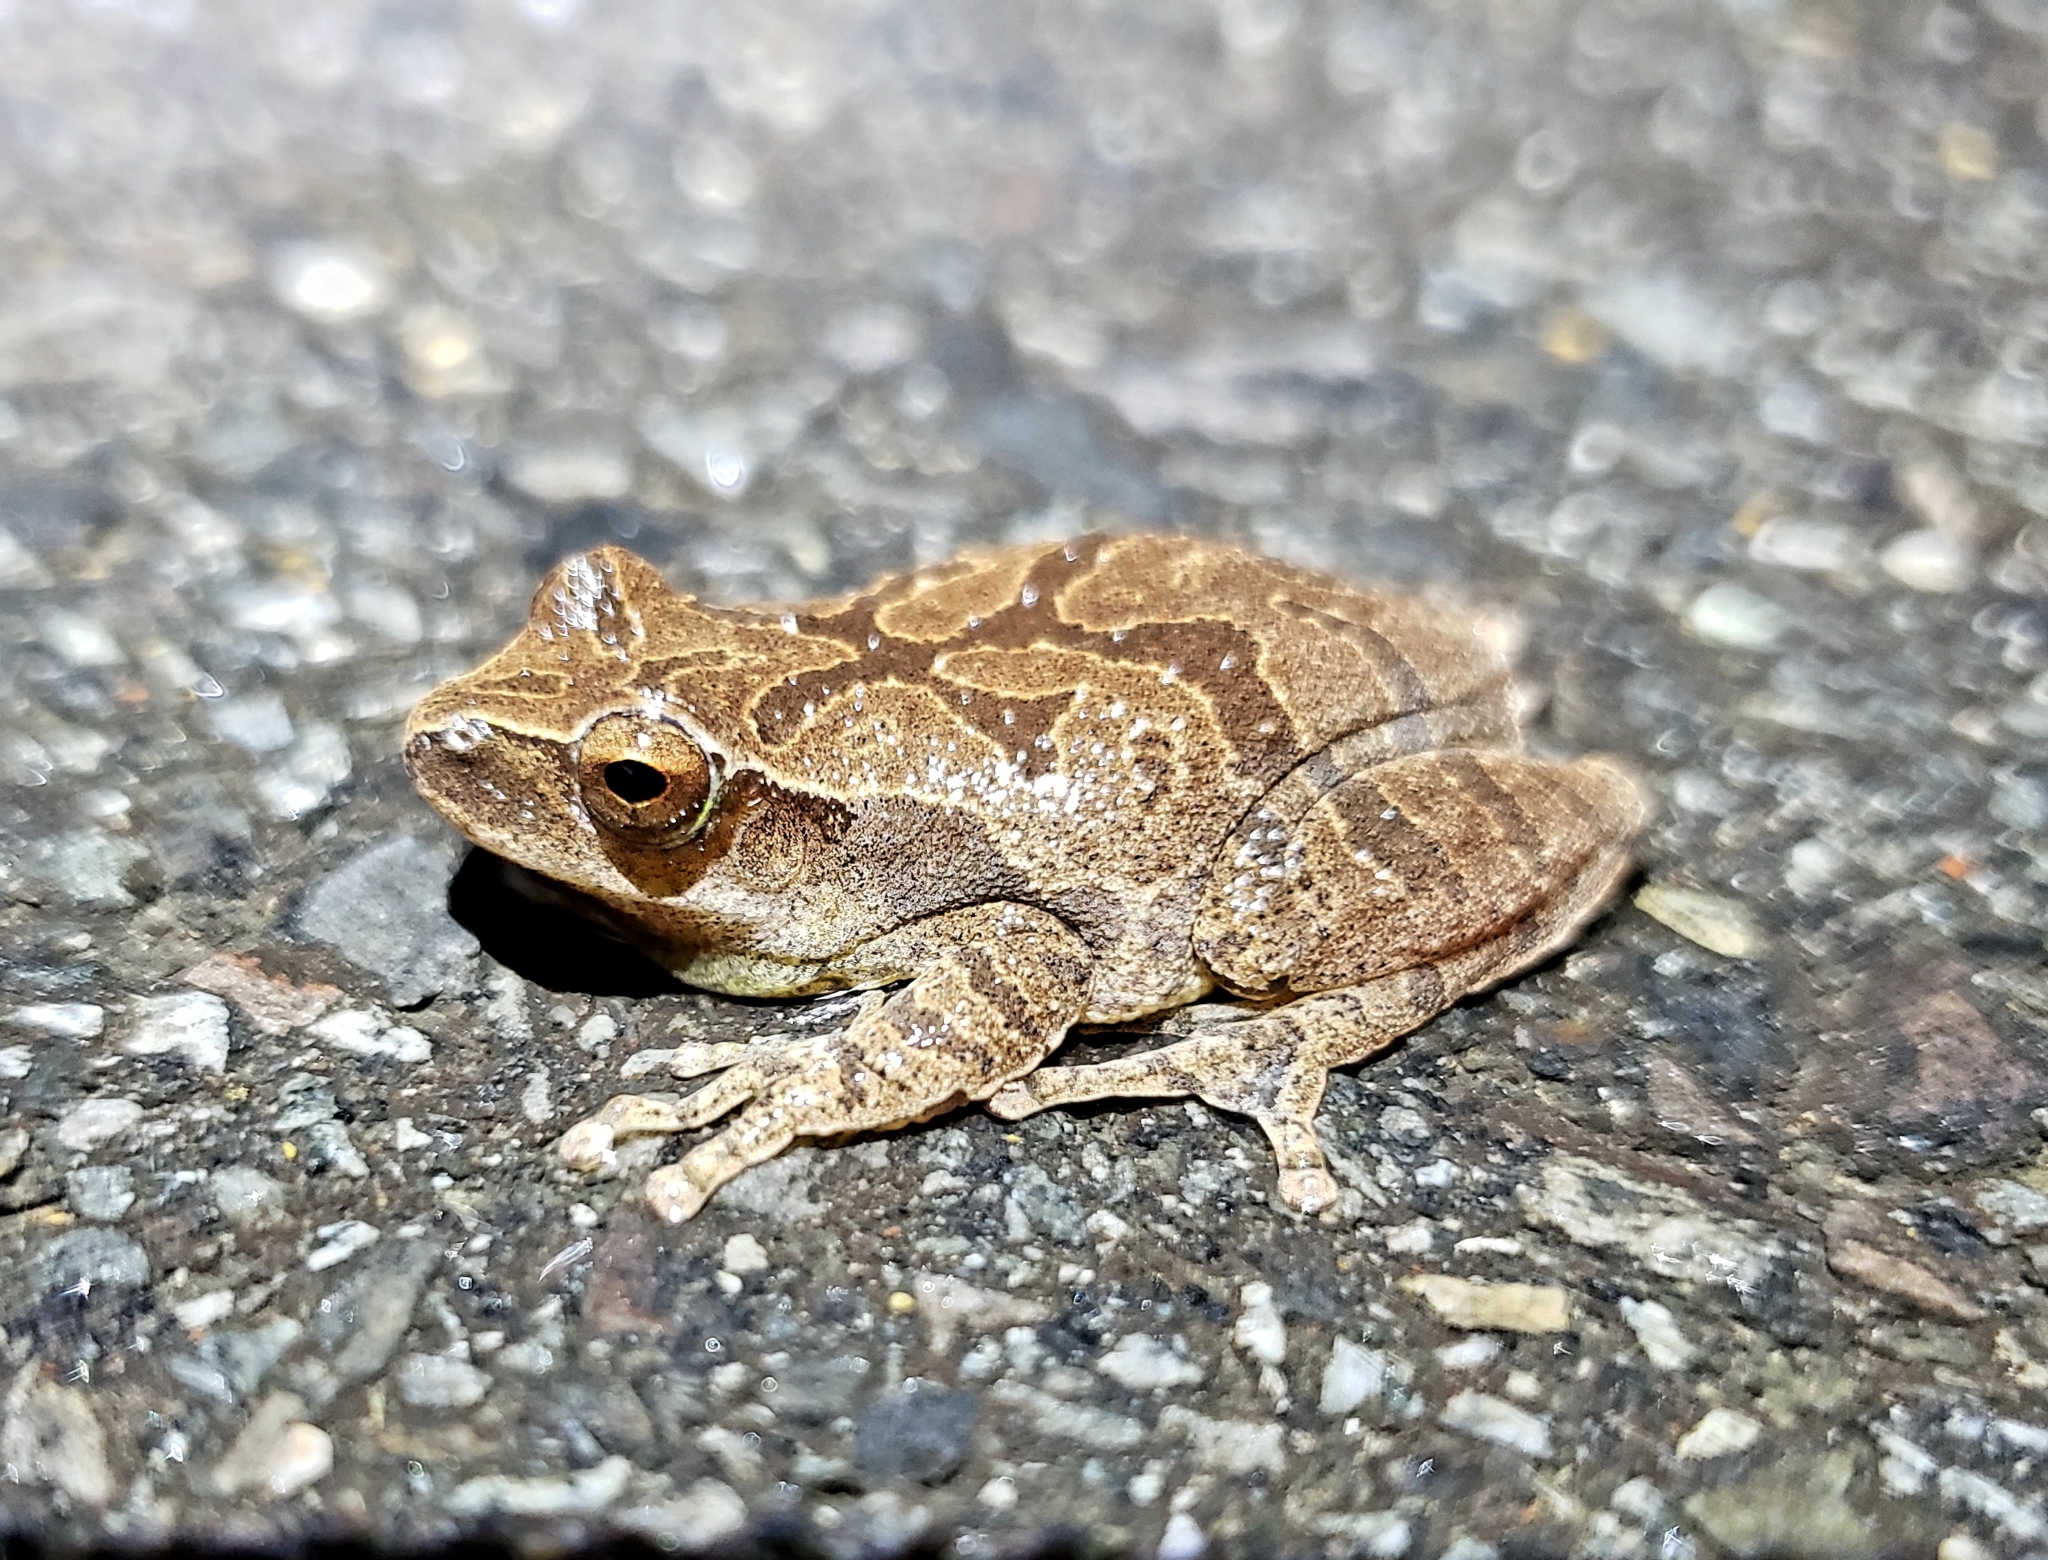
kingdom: Animalia
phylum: Chordata
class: Amphibia
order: Anura
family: Hylidae
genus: Pseudacris
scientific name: Pseudacris crucifer
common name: Spring peeper
